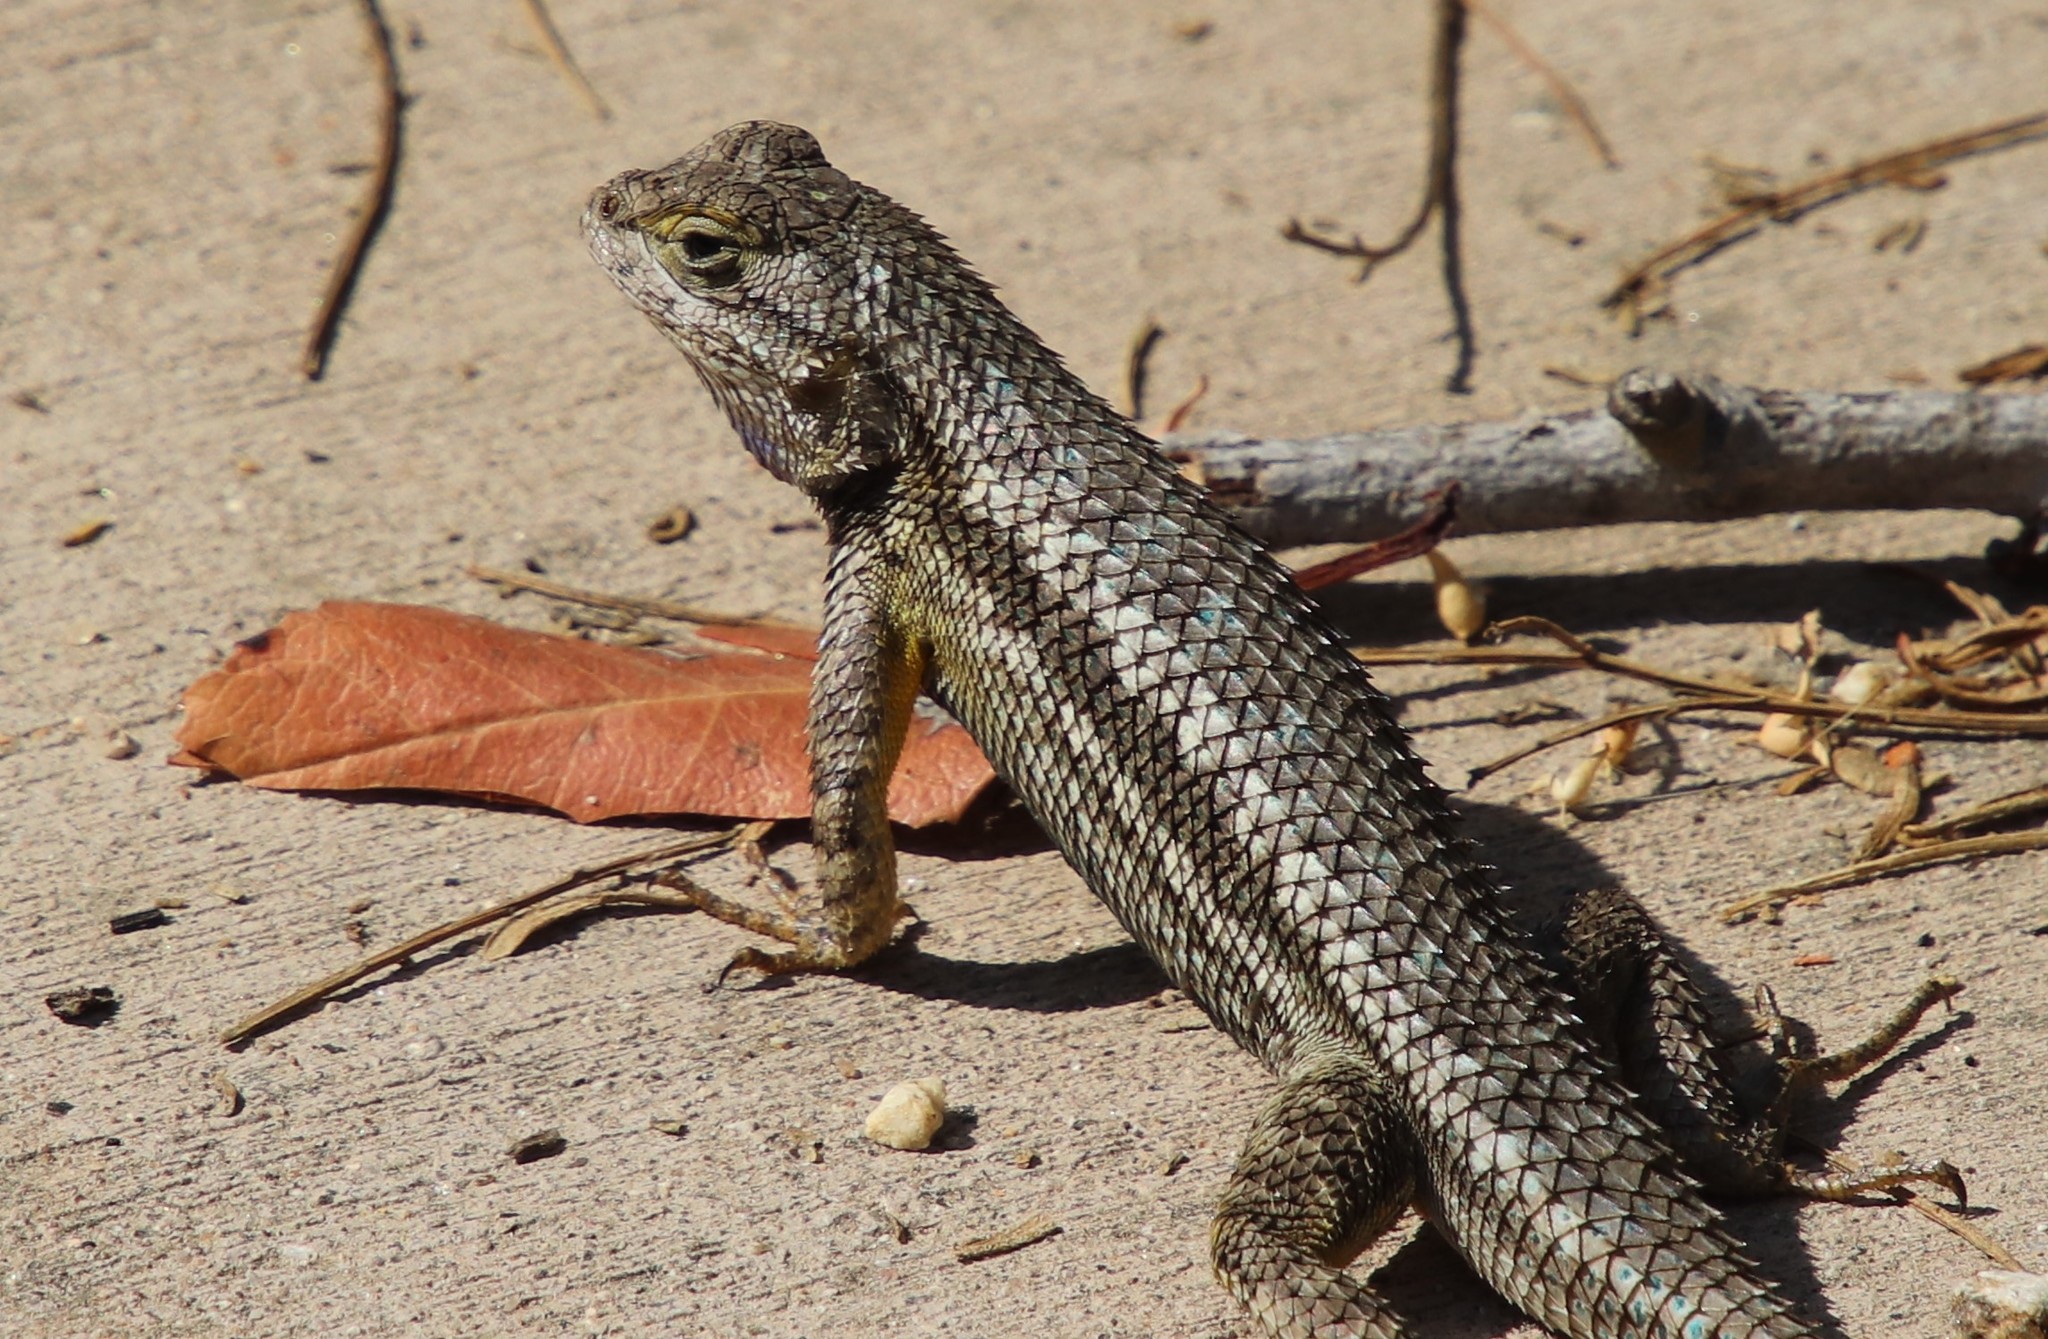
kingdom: Animalia
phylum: Chordata
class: Squamata
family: Phrynosomatidae
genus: Sceloporus
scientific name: Sceloporus occidentalis
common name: Western fence lizard
